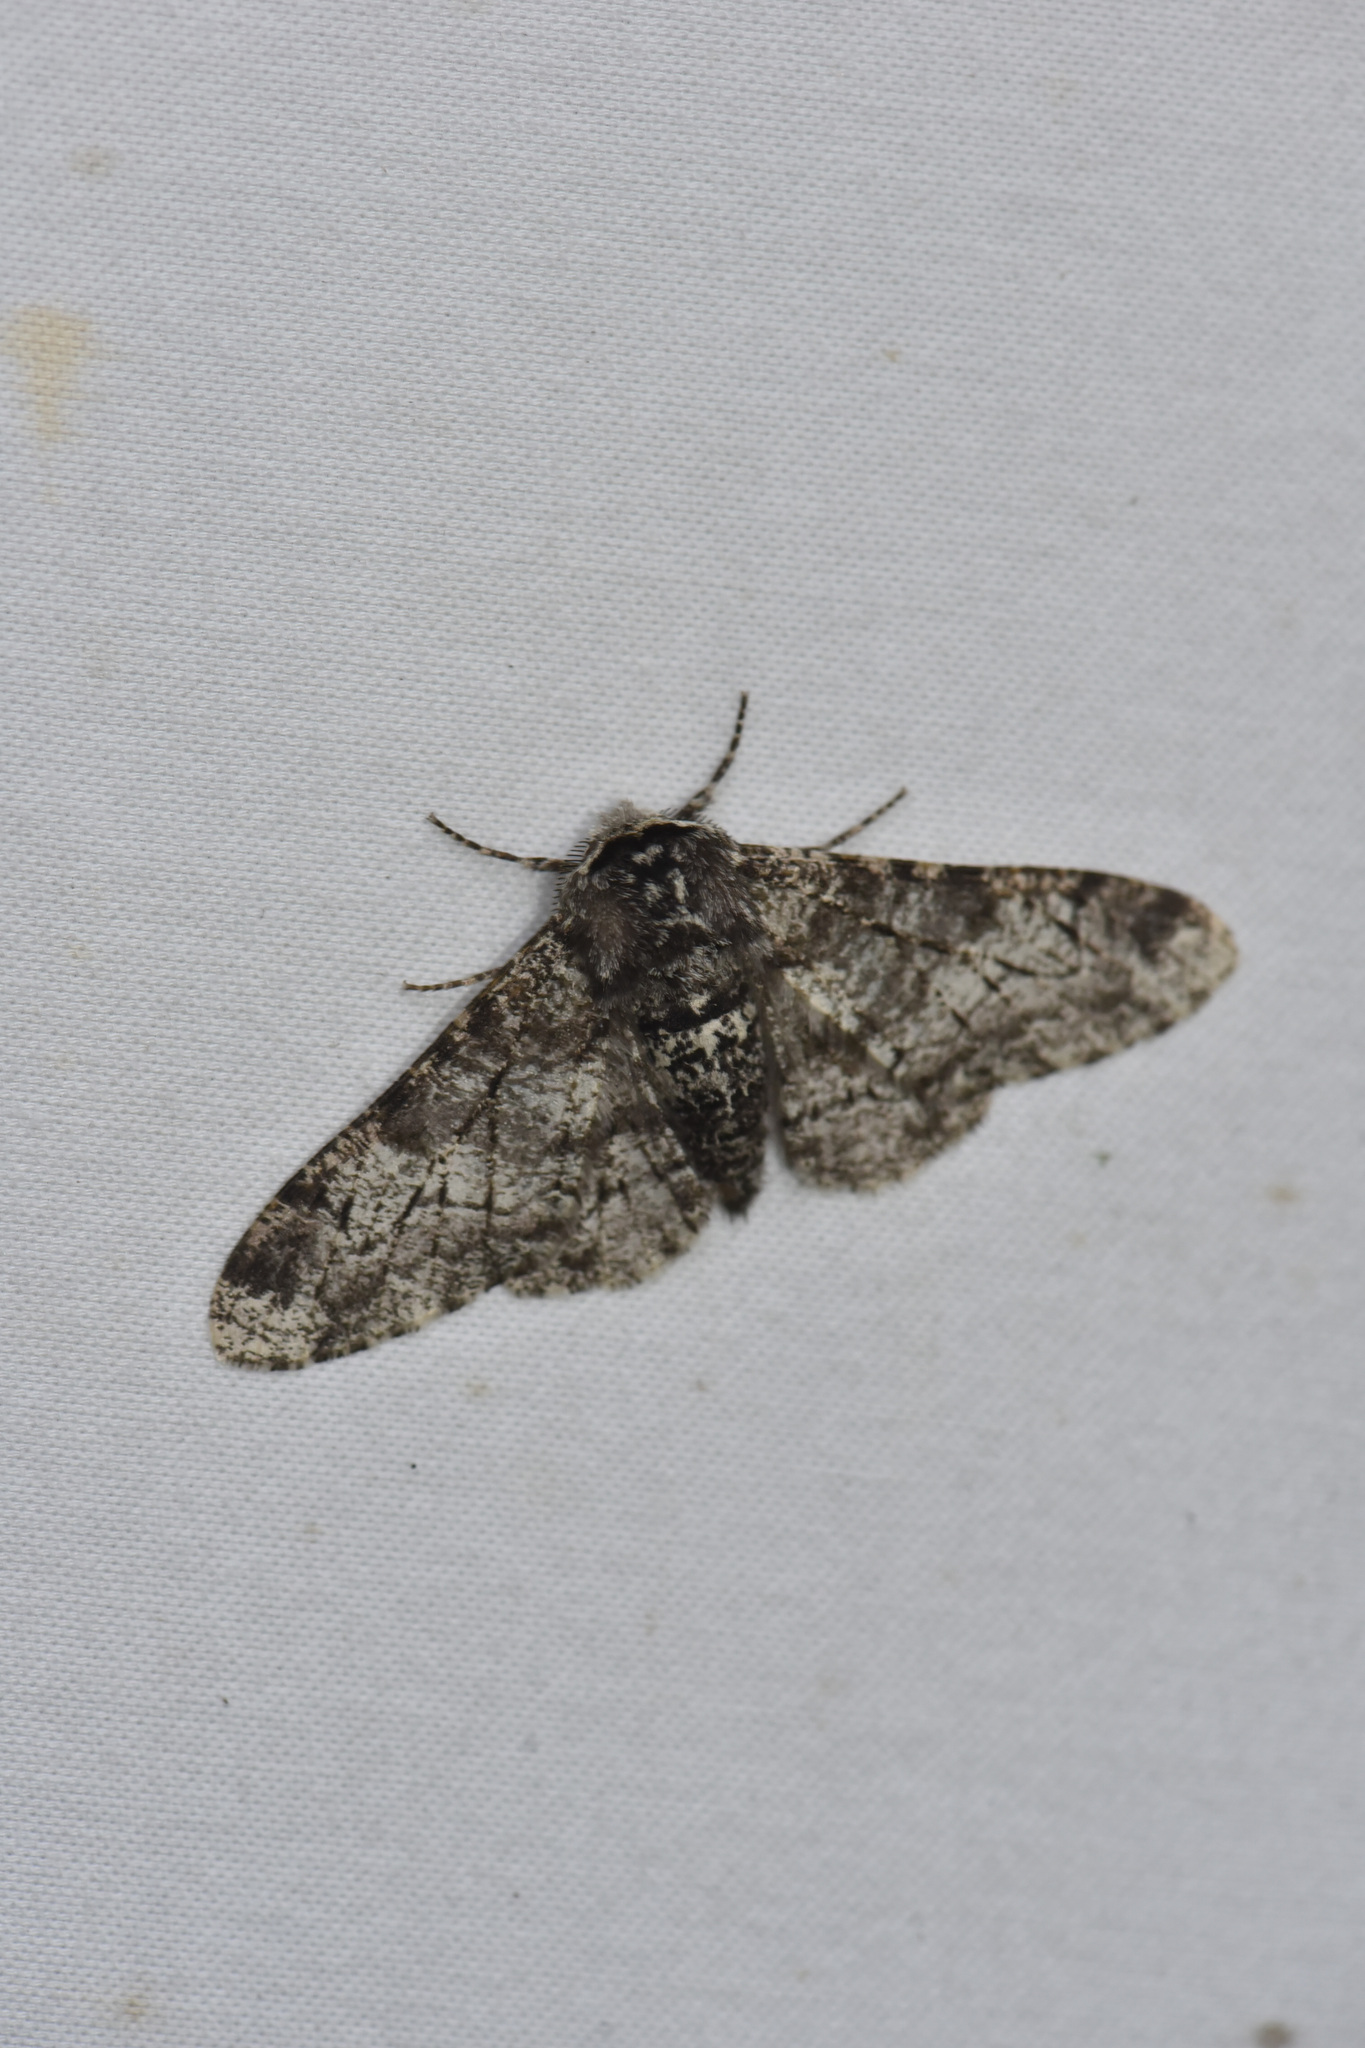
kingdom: Animalia
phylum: Arthropoda
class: Insecta
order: Lepidoptera
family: Geometridae
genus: Biston
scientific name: Biston betularia
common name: Peppered moth
